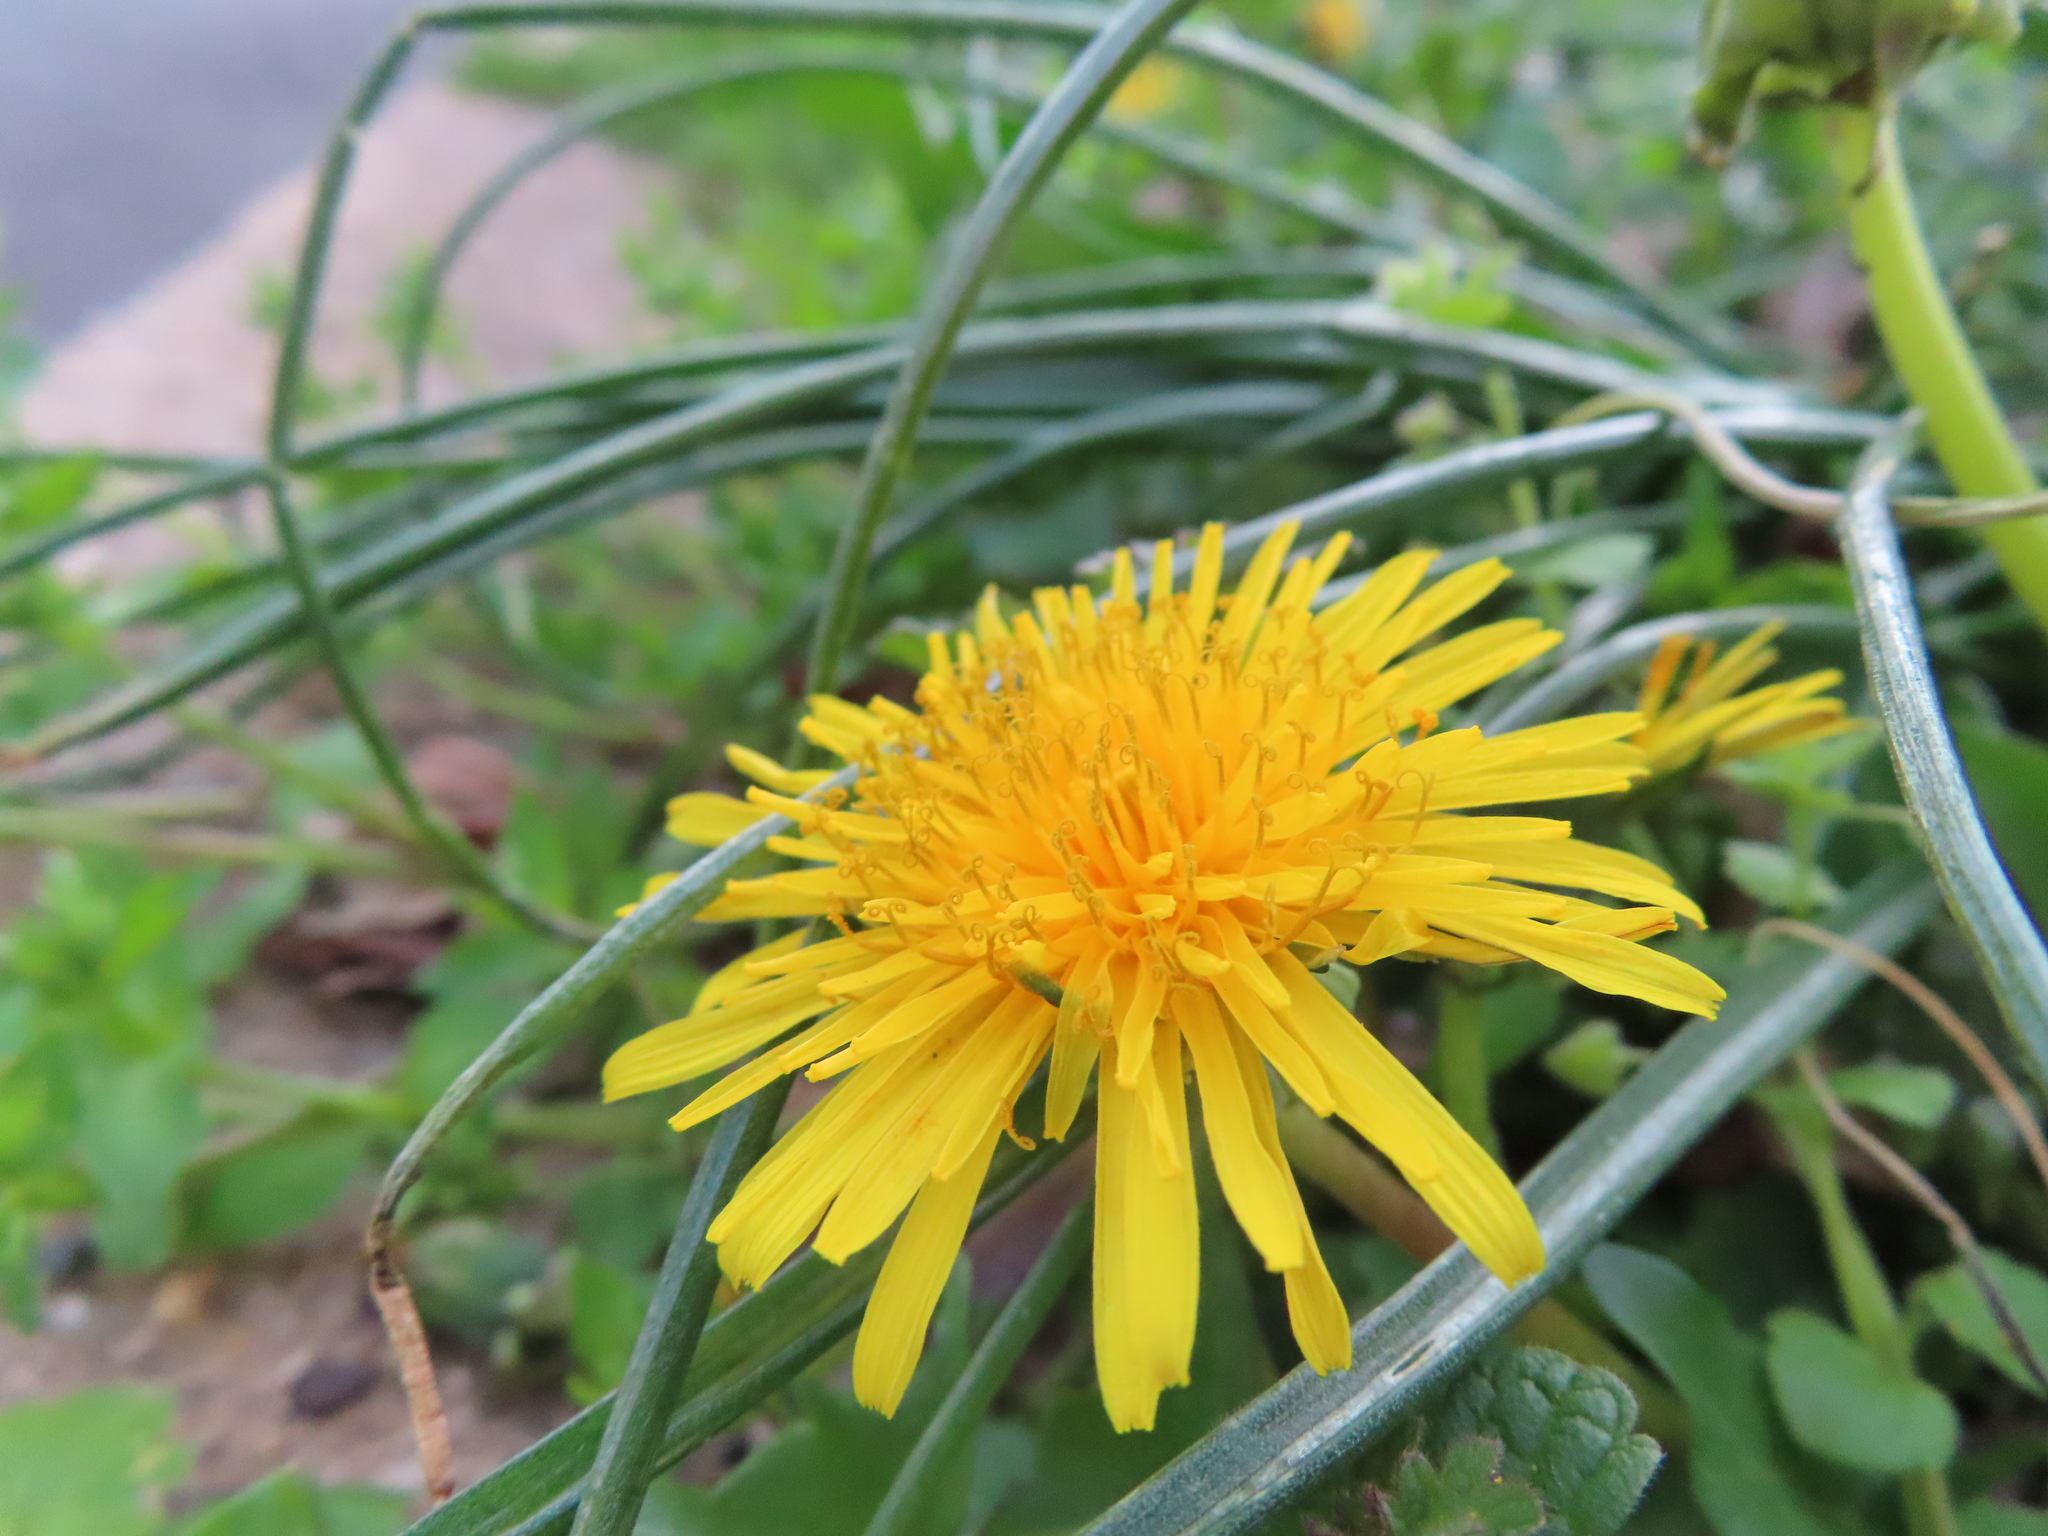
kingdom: Plantae
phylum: Tracheophyta
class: Magnoliopsida
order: Asterales
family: Asteraceae
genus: Taraxacum
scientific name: Taraxacum
